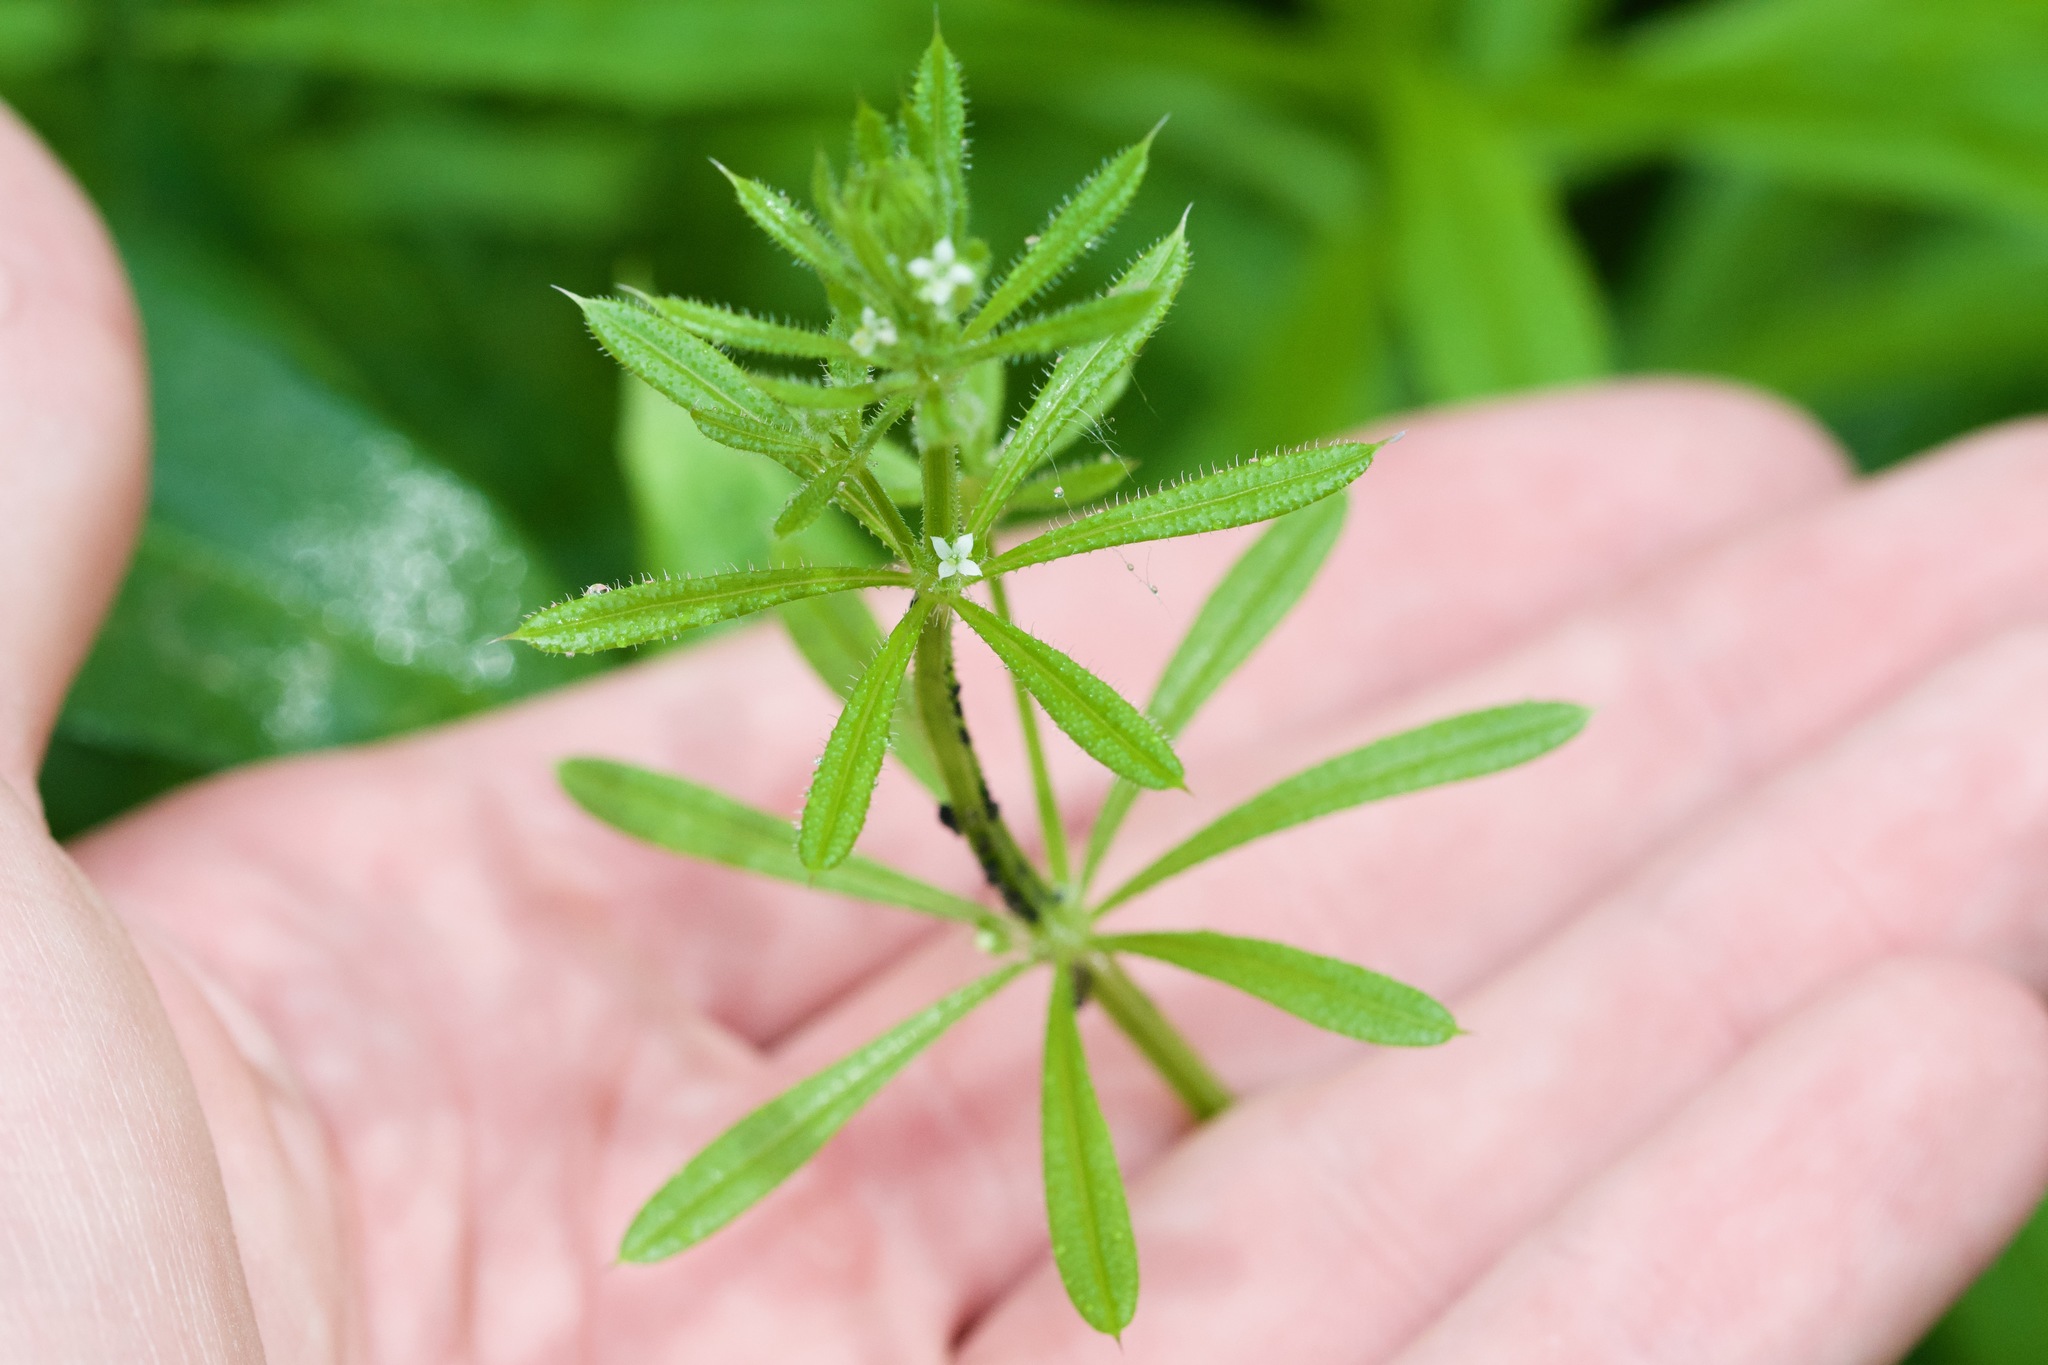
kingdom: Plantae
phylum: Tracheophyta
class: Magnoliopsida
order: Gentianales
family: Rubiaceae
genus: Galium
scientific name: Galium aparine
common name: Cleavers
